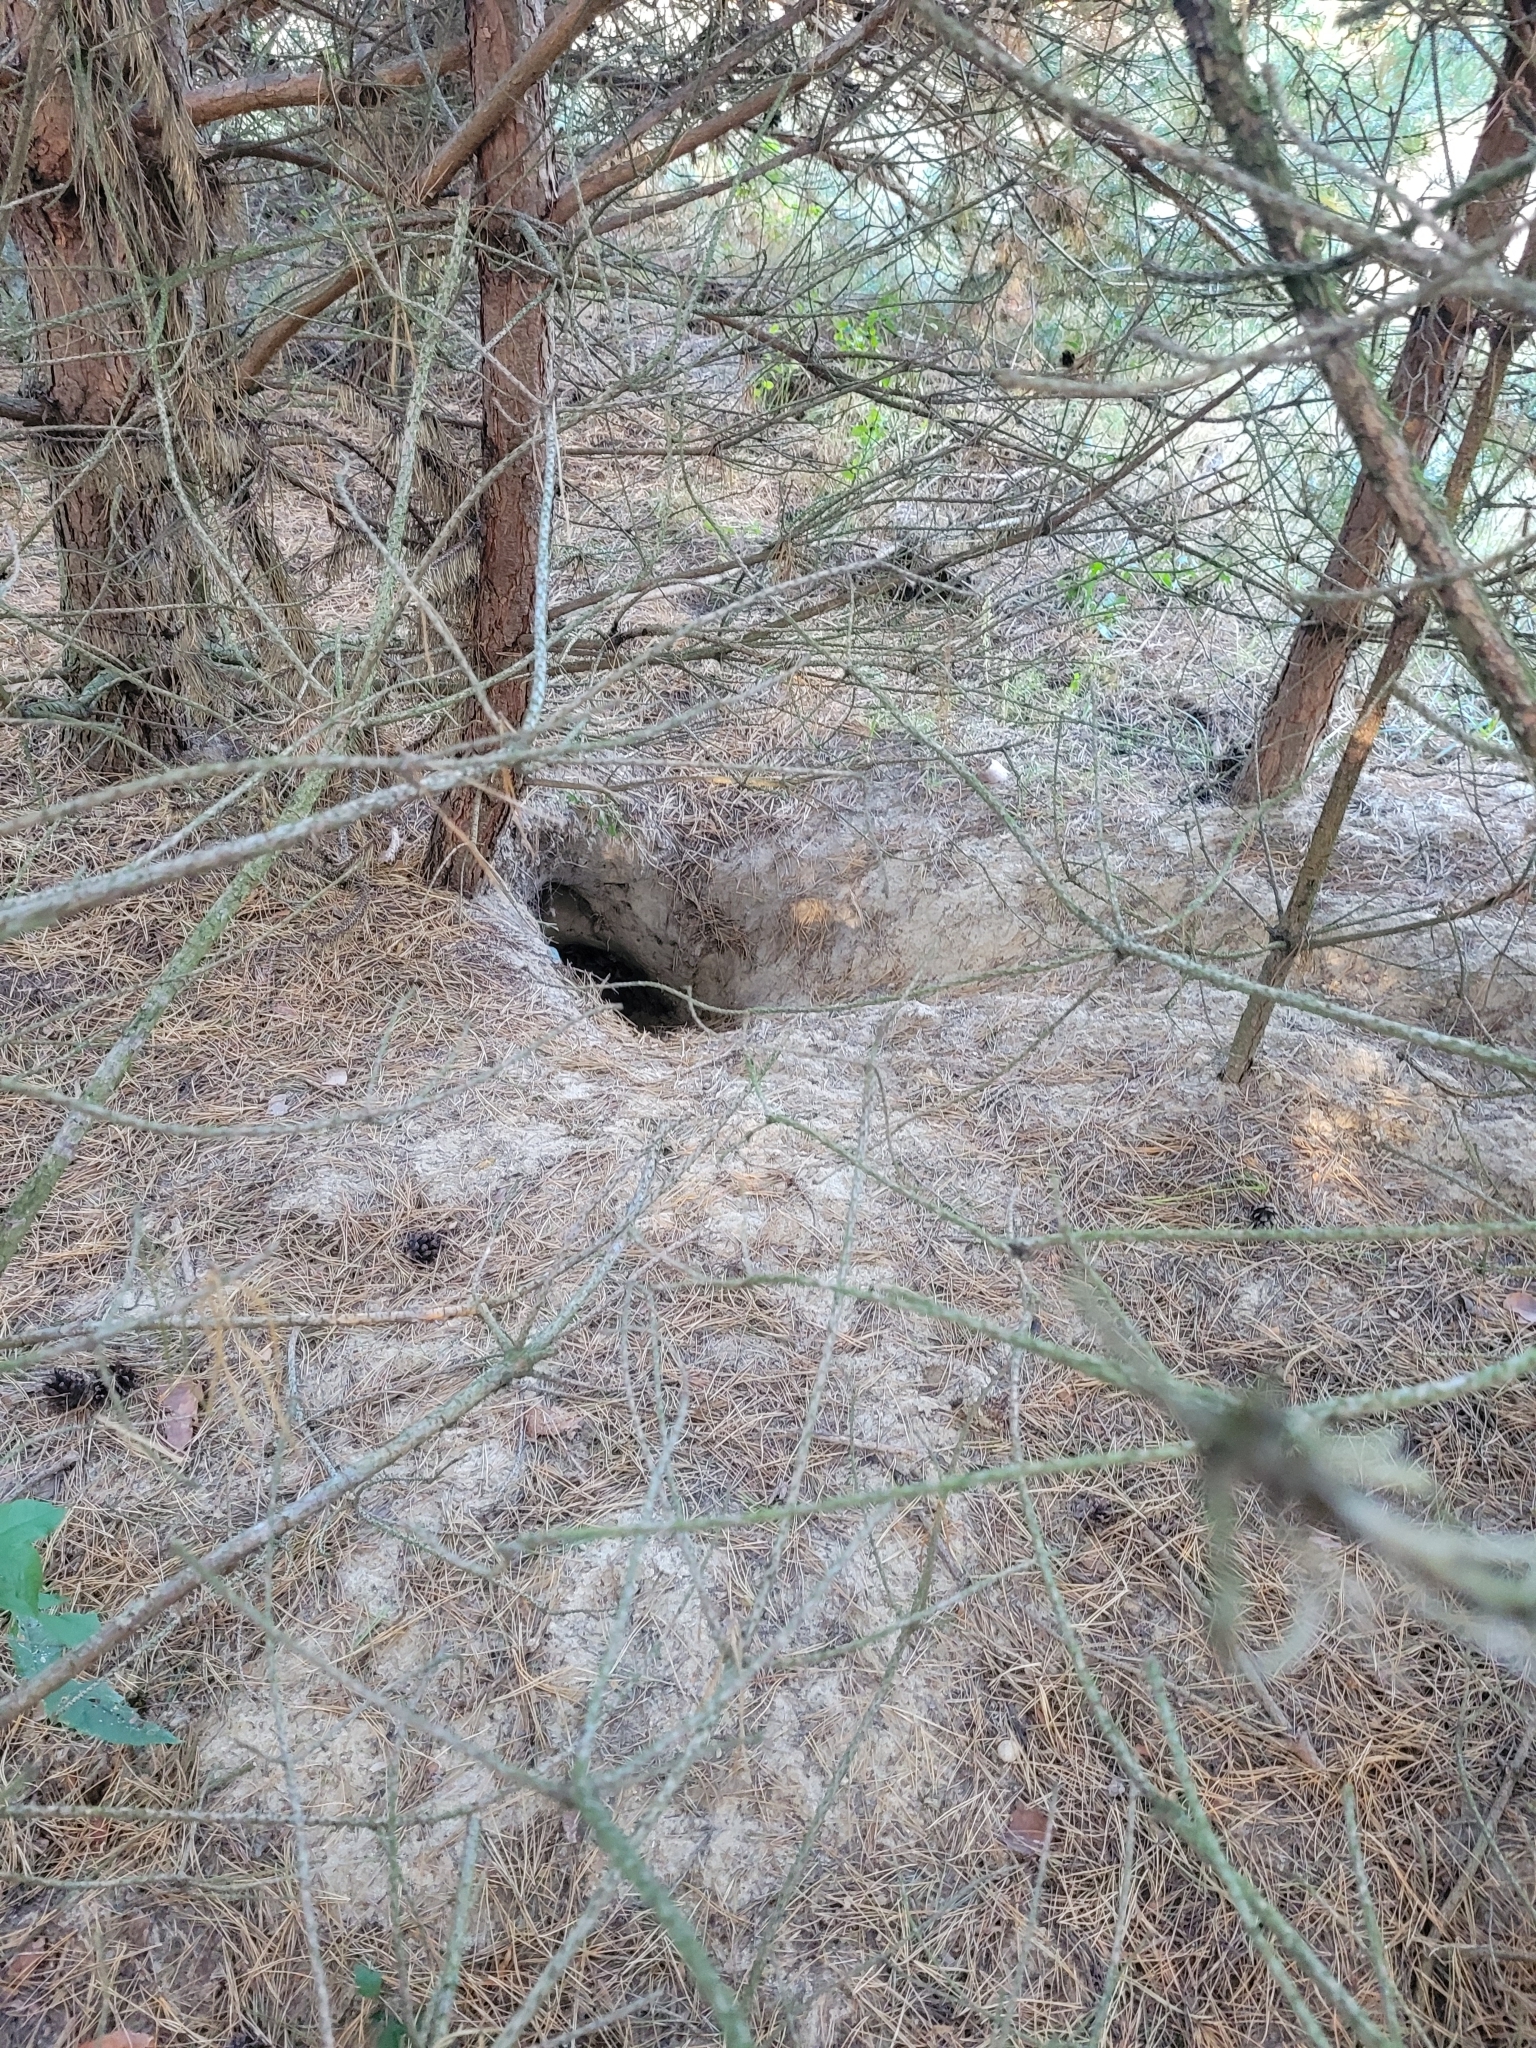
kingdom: Animalia
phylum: Chordata
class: Mammalia
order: Carnivora
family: Canidae
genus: Vulpes
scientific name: Vulpes vulpes
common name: Red fox
